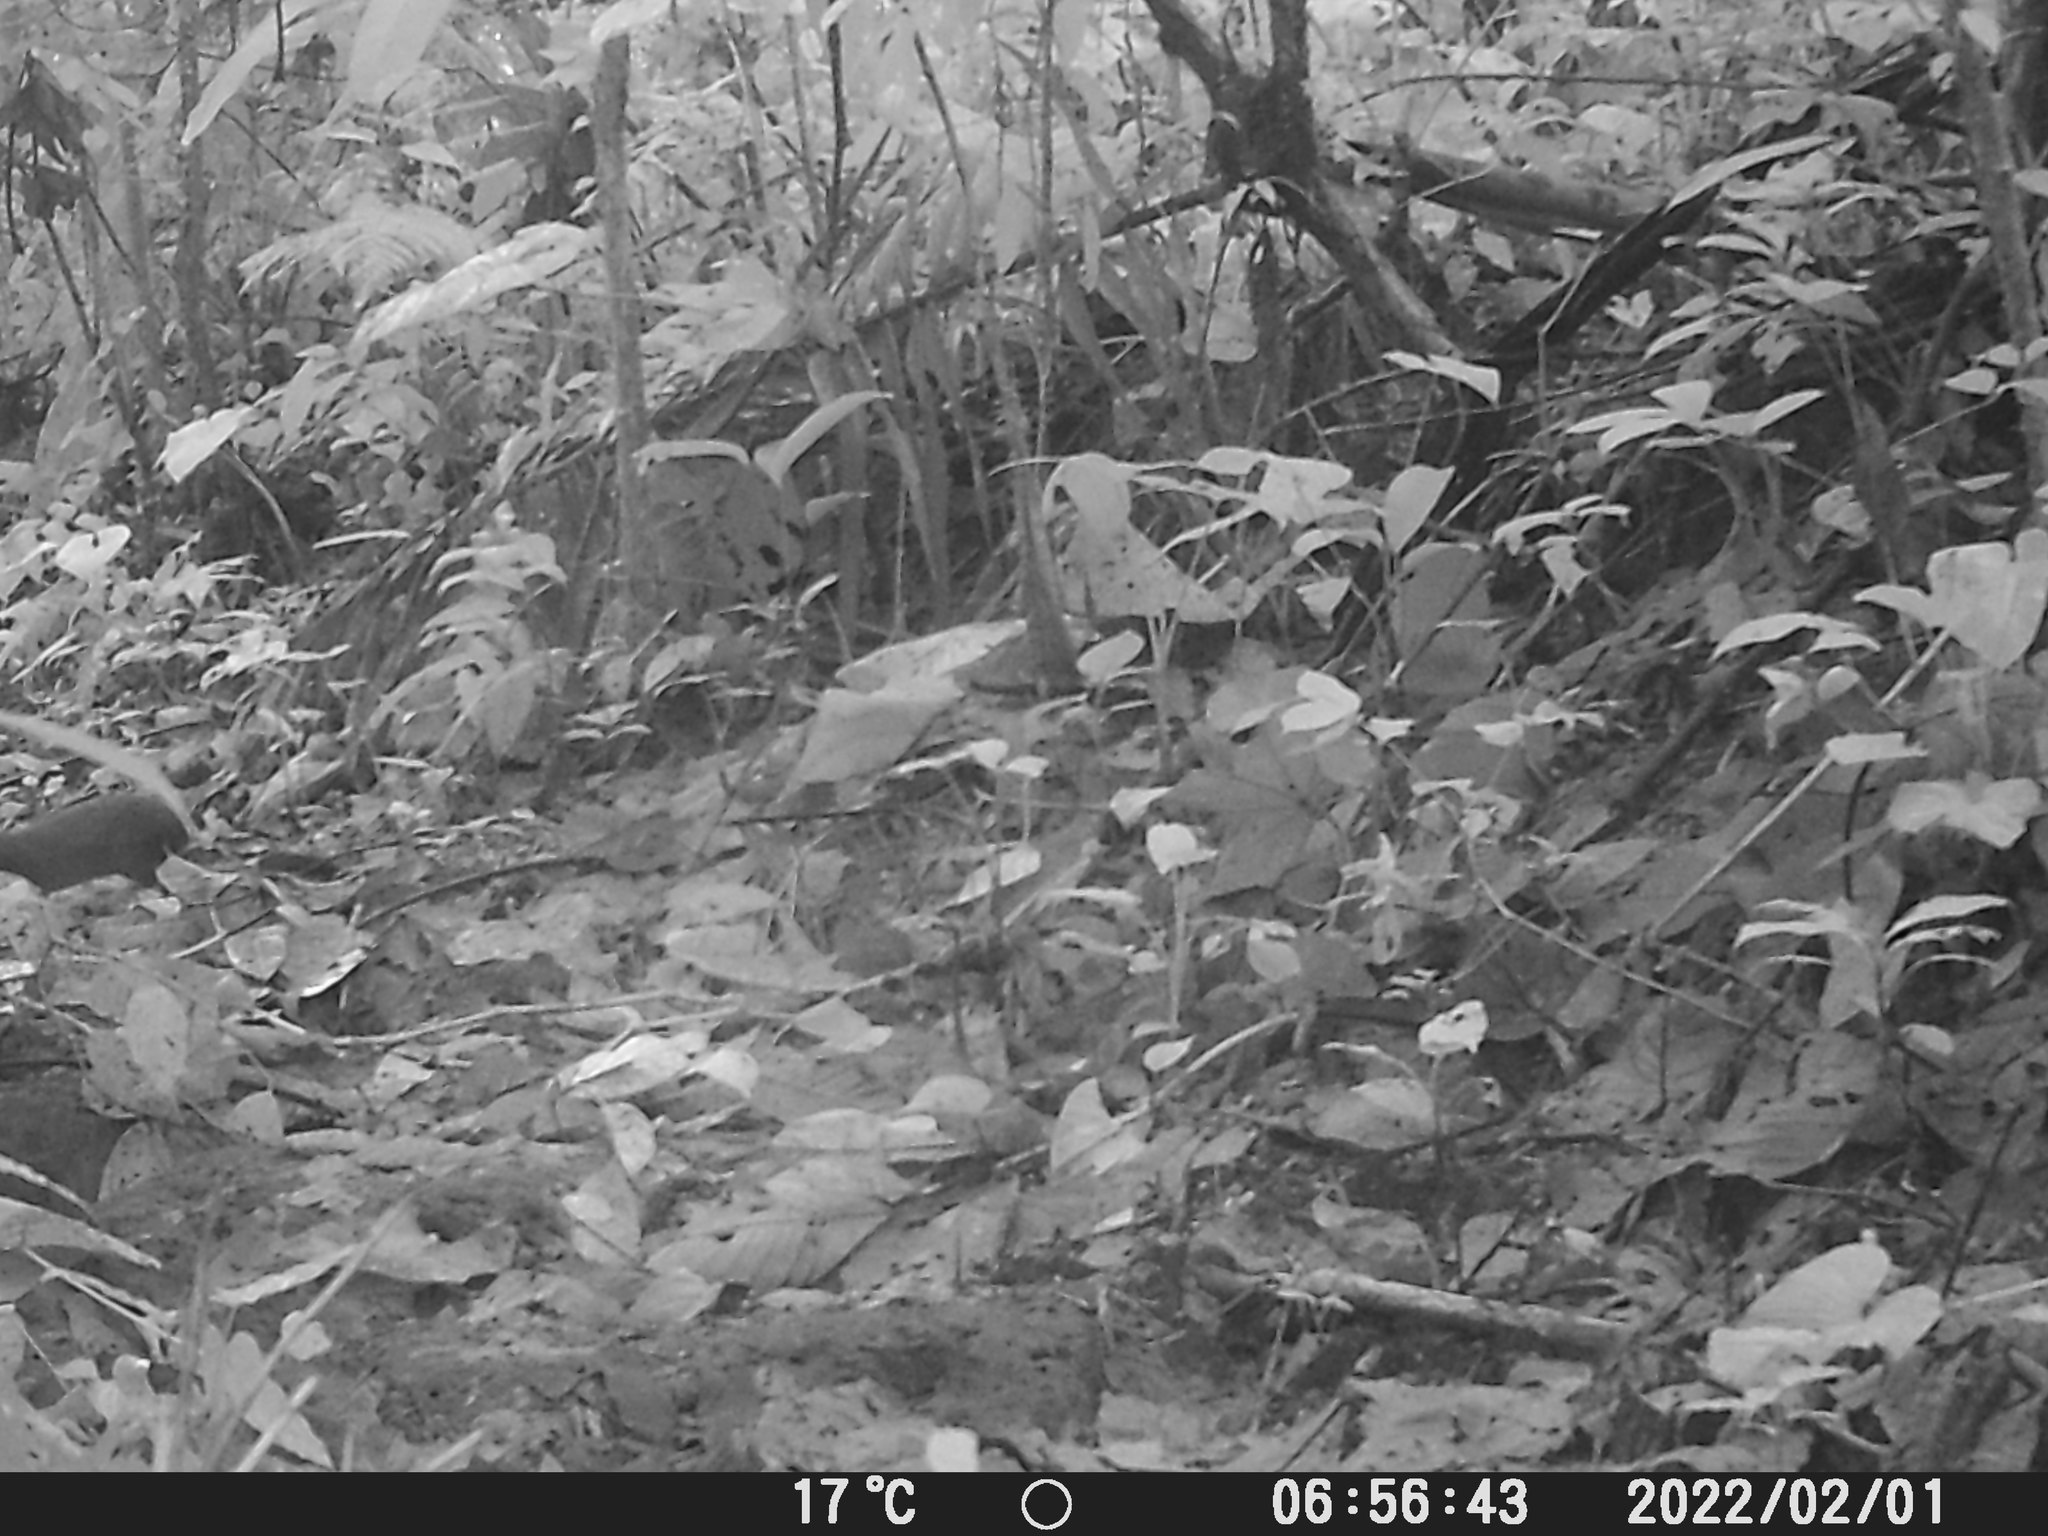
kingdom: Animalia
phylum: Chordata
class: Mammalia
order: Rodentia
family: Dasyproctidae
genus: Dasyprocta
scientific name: Dasyprocta punctata
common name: Central american agouti
